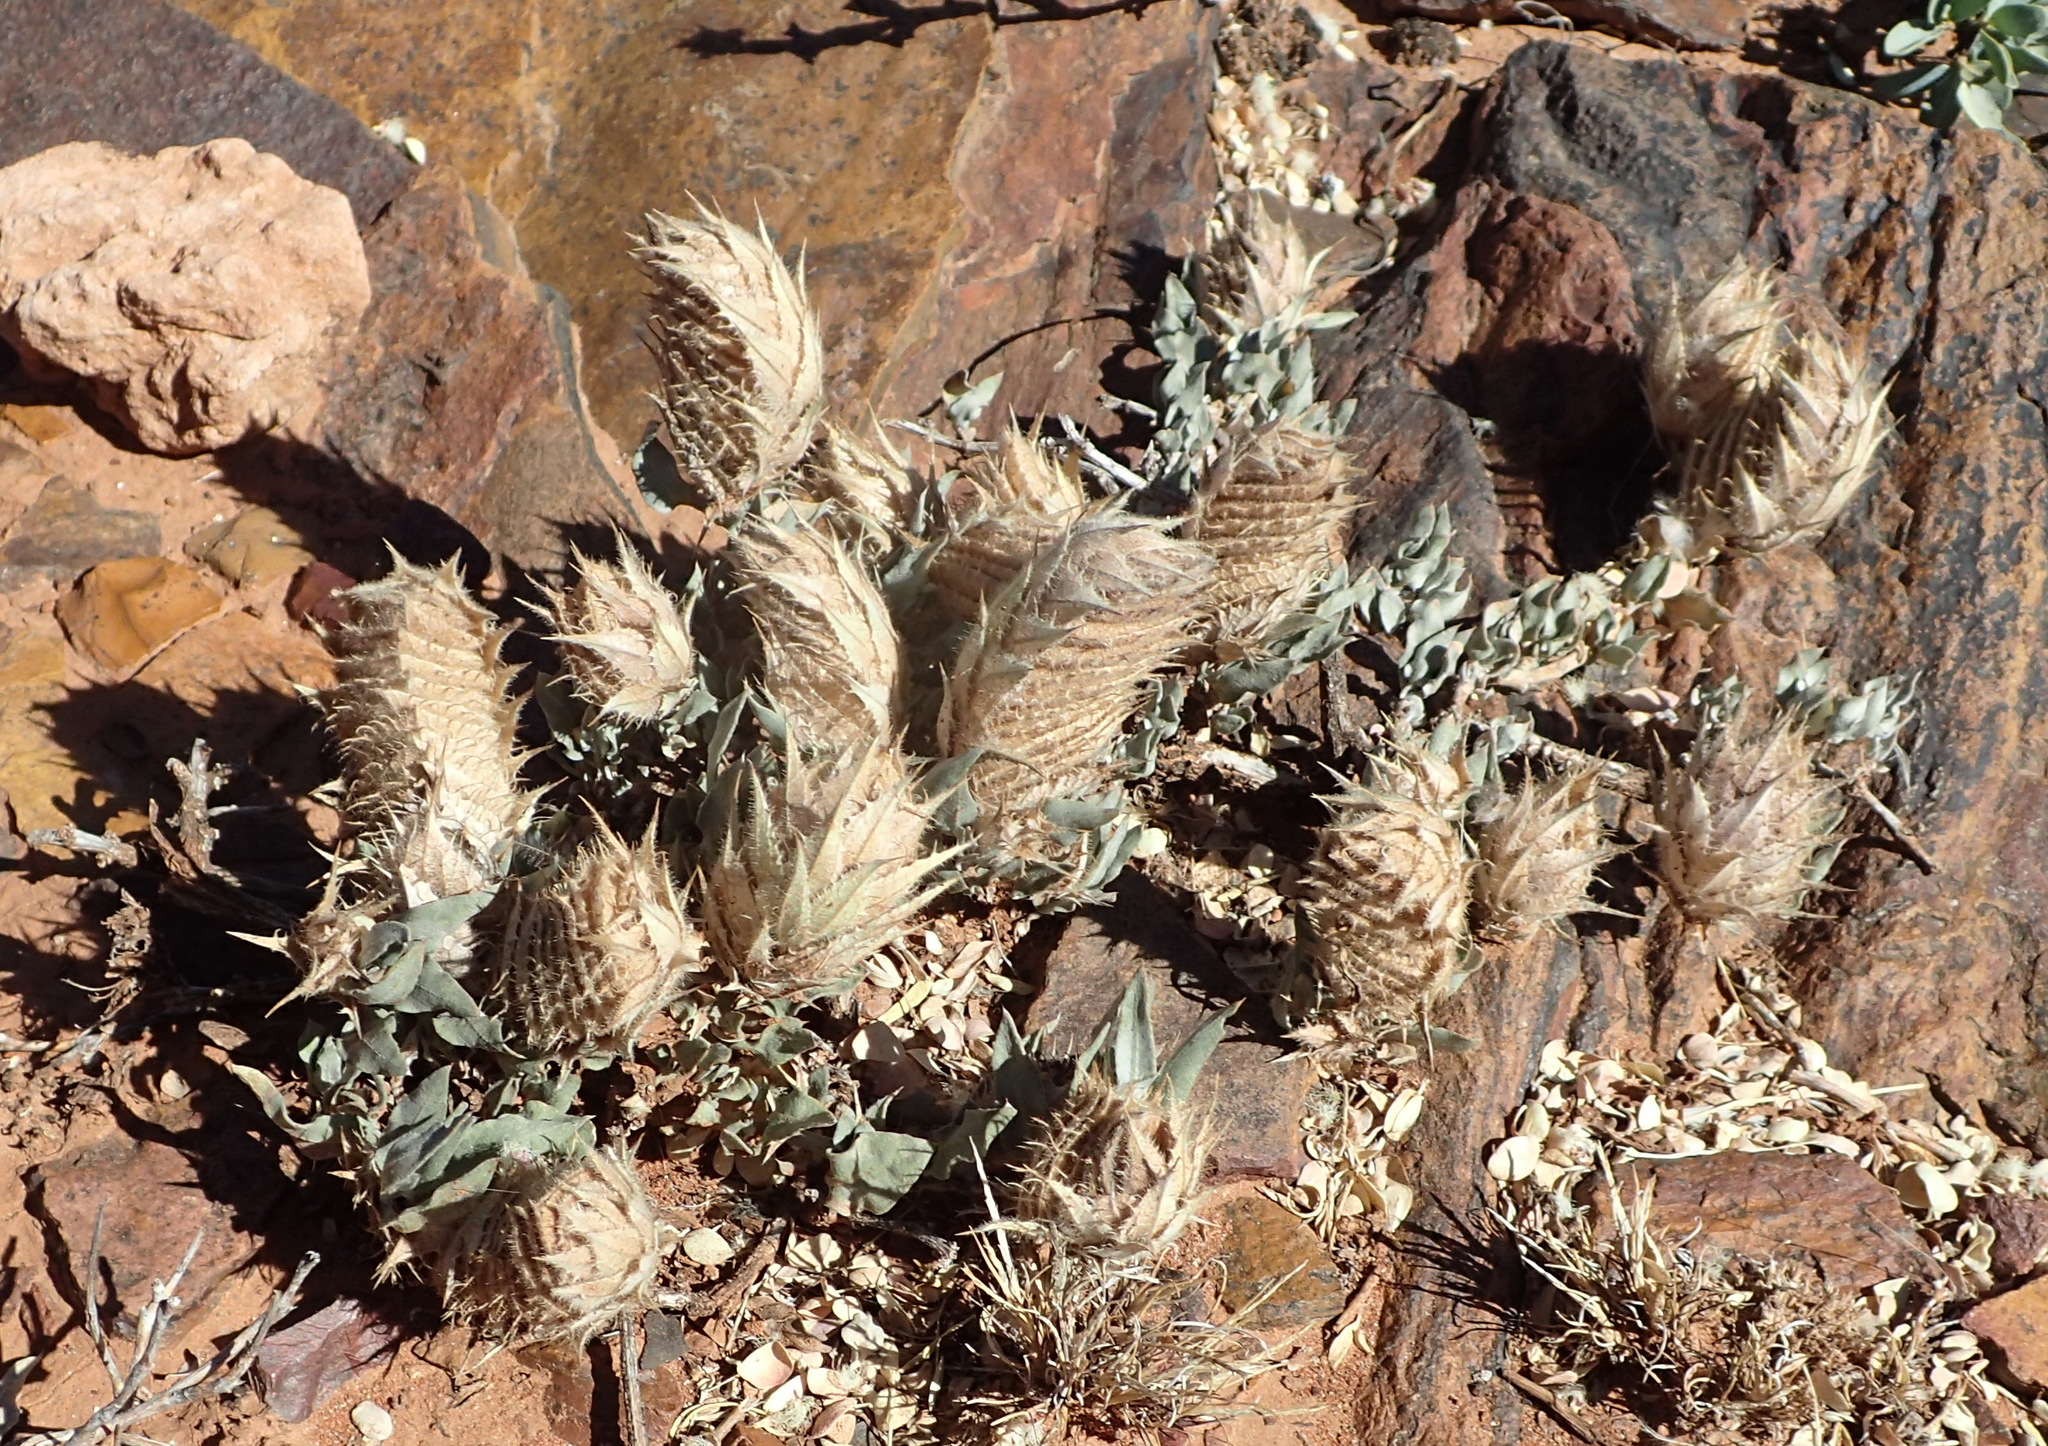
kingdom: Plantae
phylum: Tracheophyta
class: Magnoliopsida
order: Lamiales
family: Acanthaceae
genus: Barleria
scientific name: Barleria lichtensteiniana
